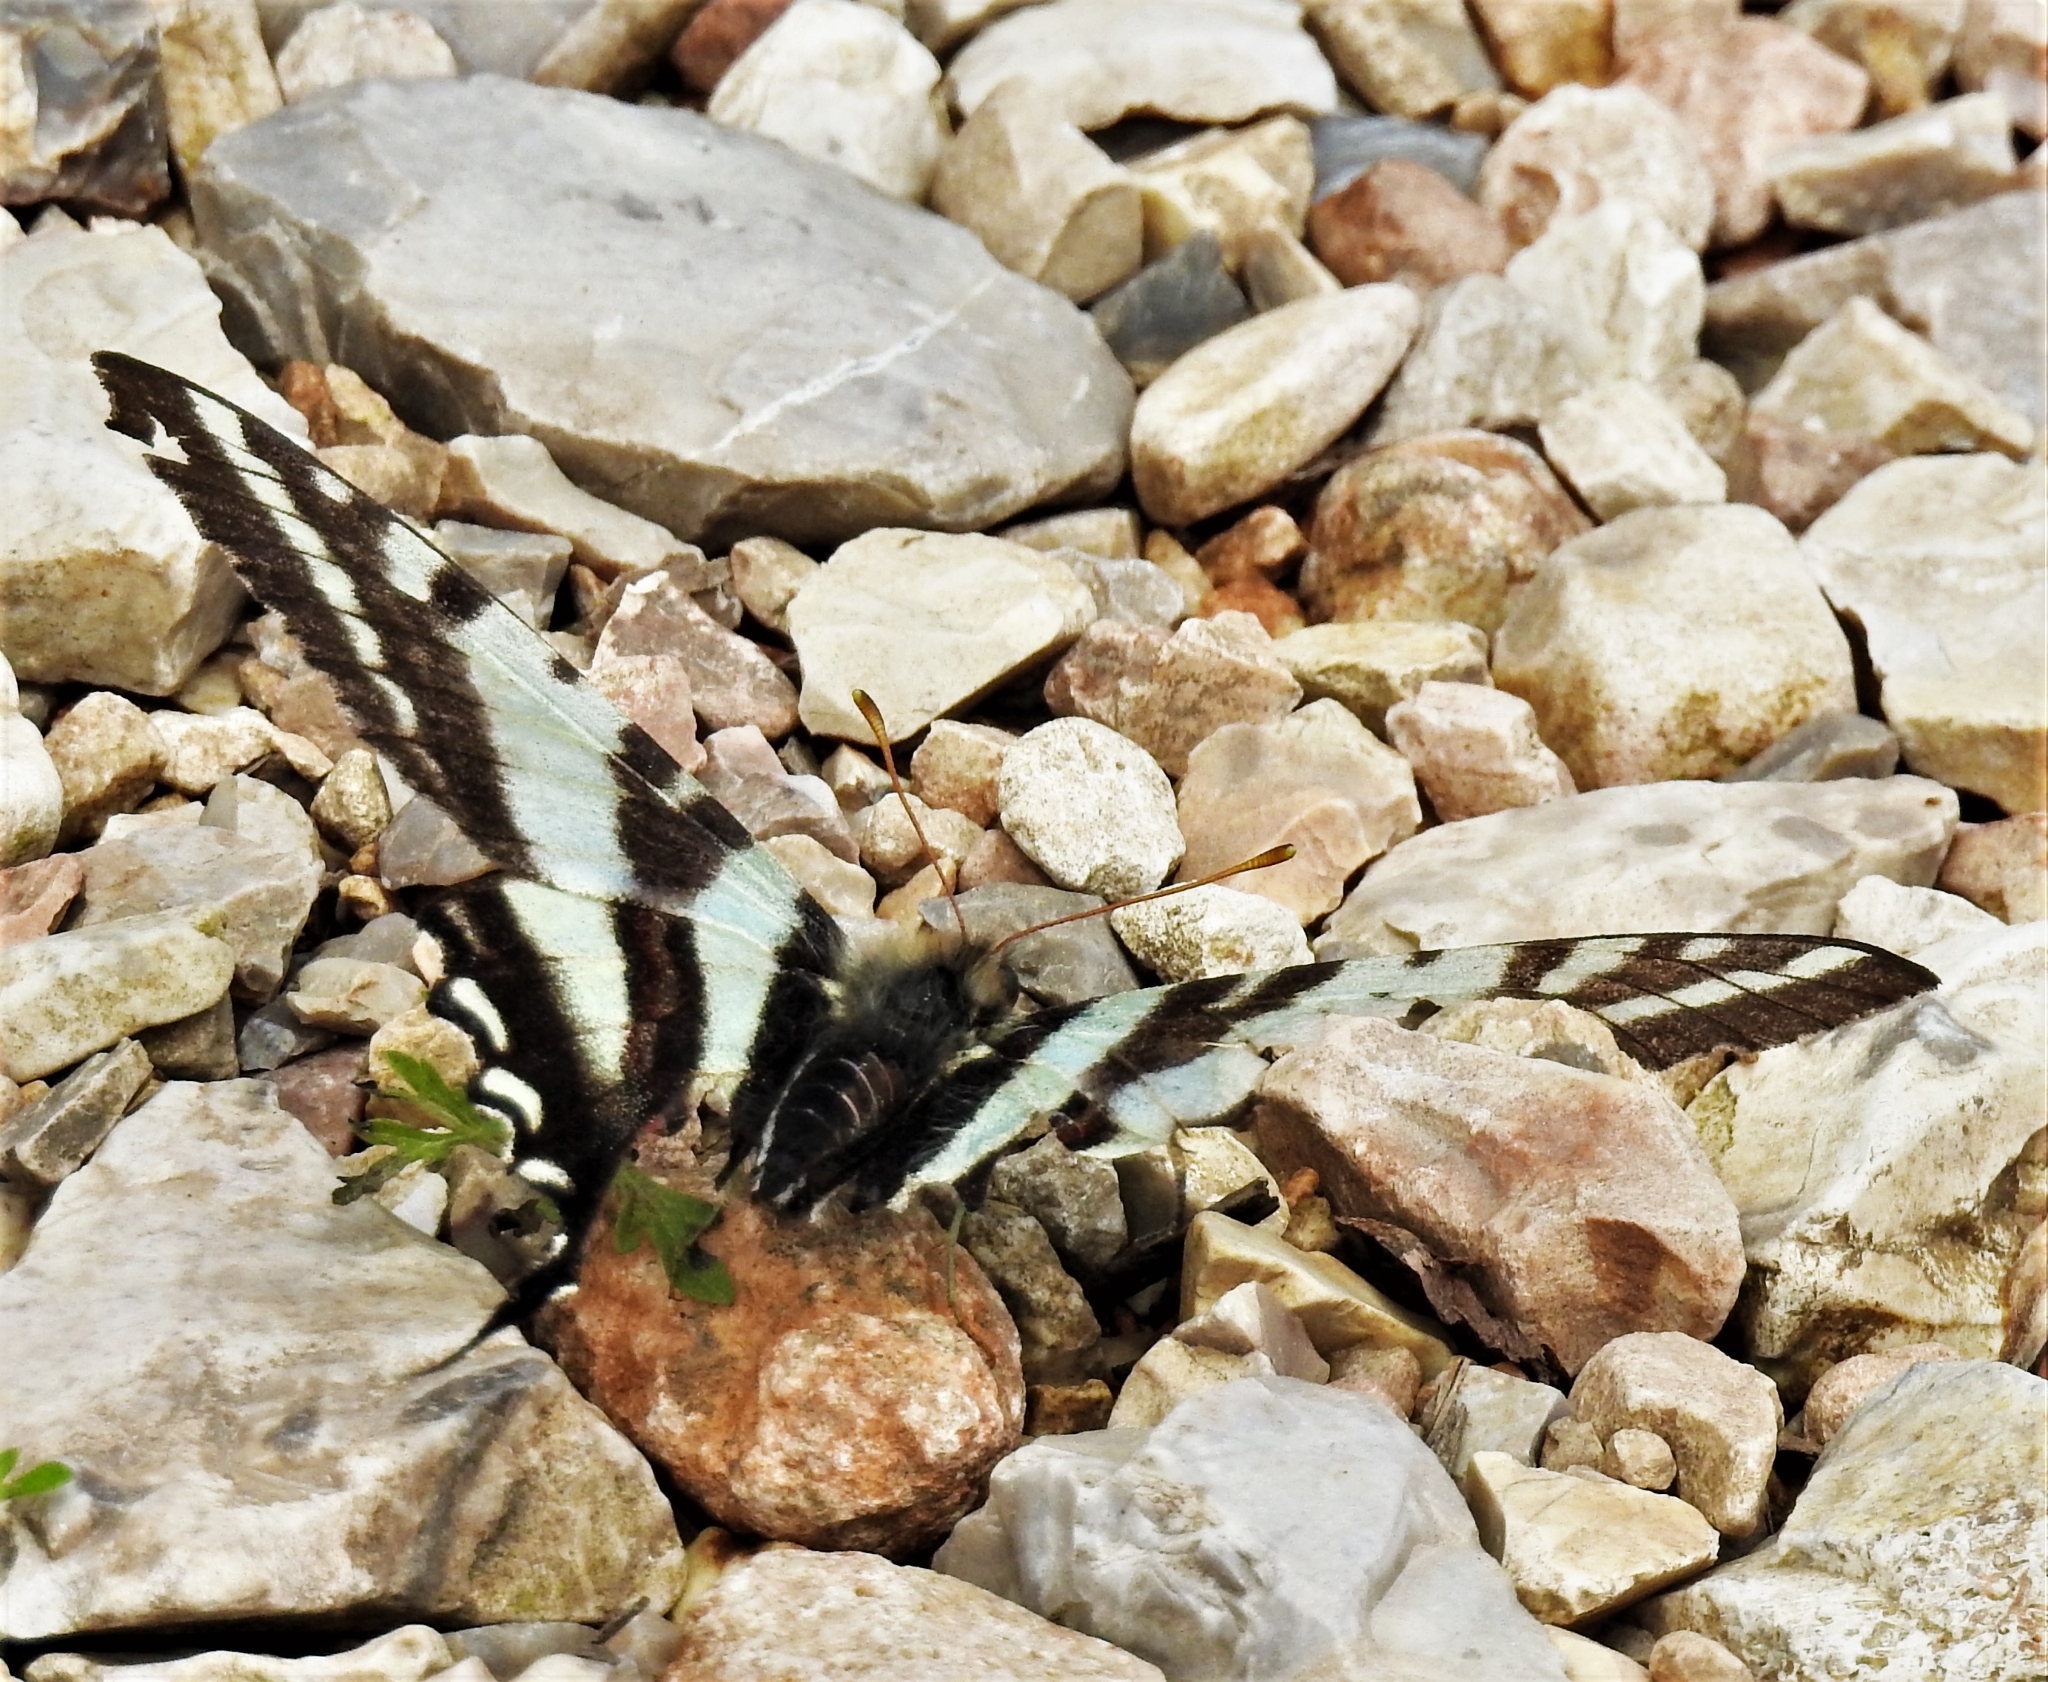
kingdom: Animalia
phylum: Arthropoda
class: Insecta
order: Lepidoptera
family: Papilionidae
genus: Protographium
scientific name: Protographium marcellus
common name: Zebra swallowtail
